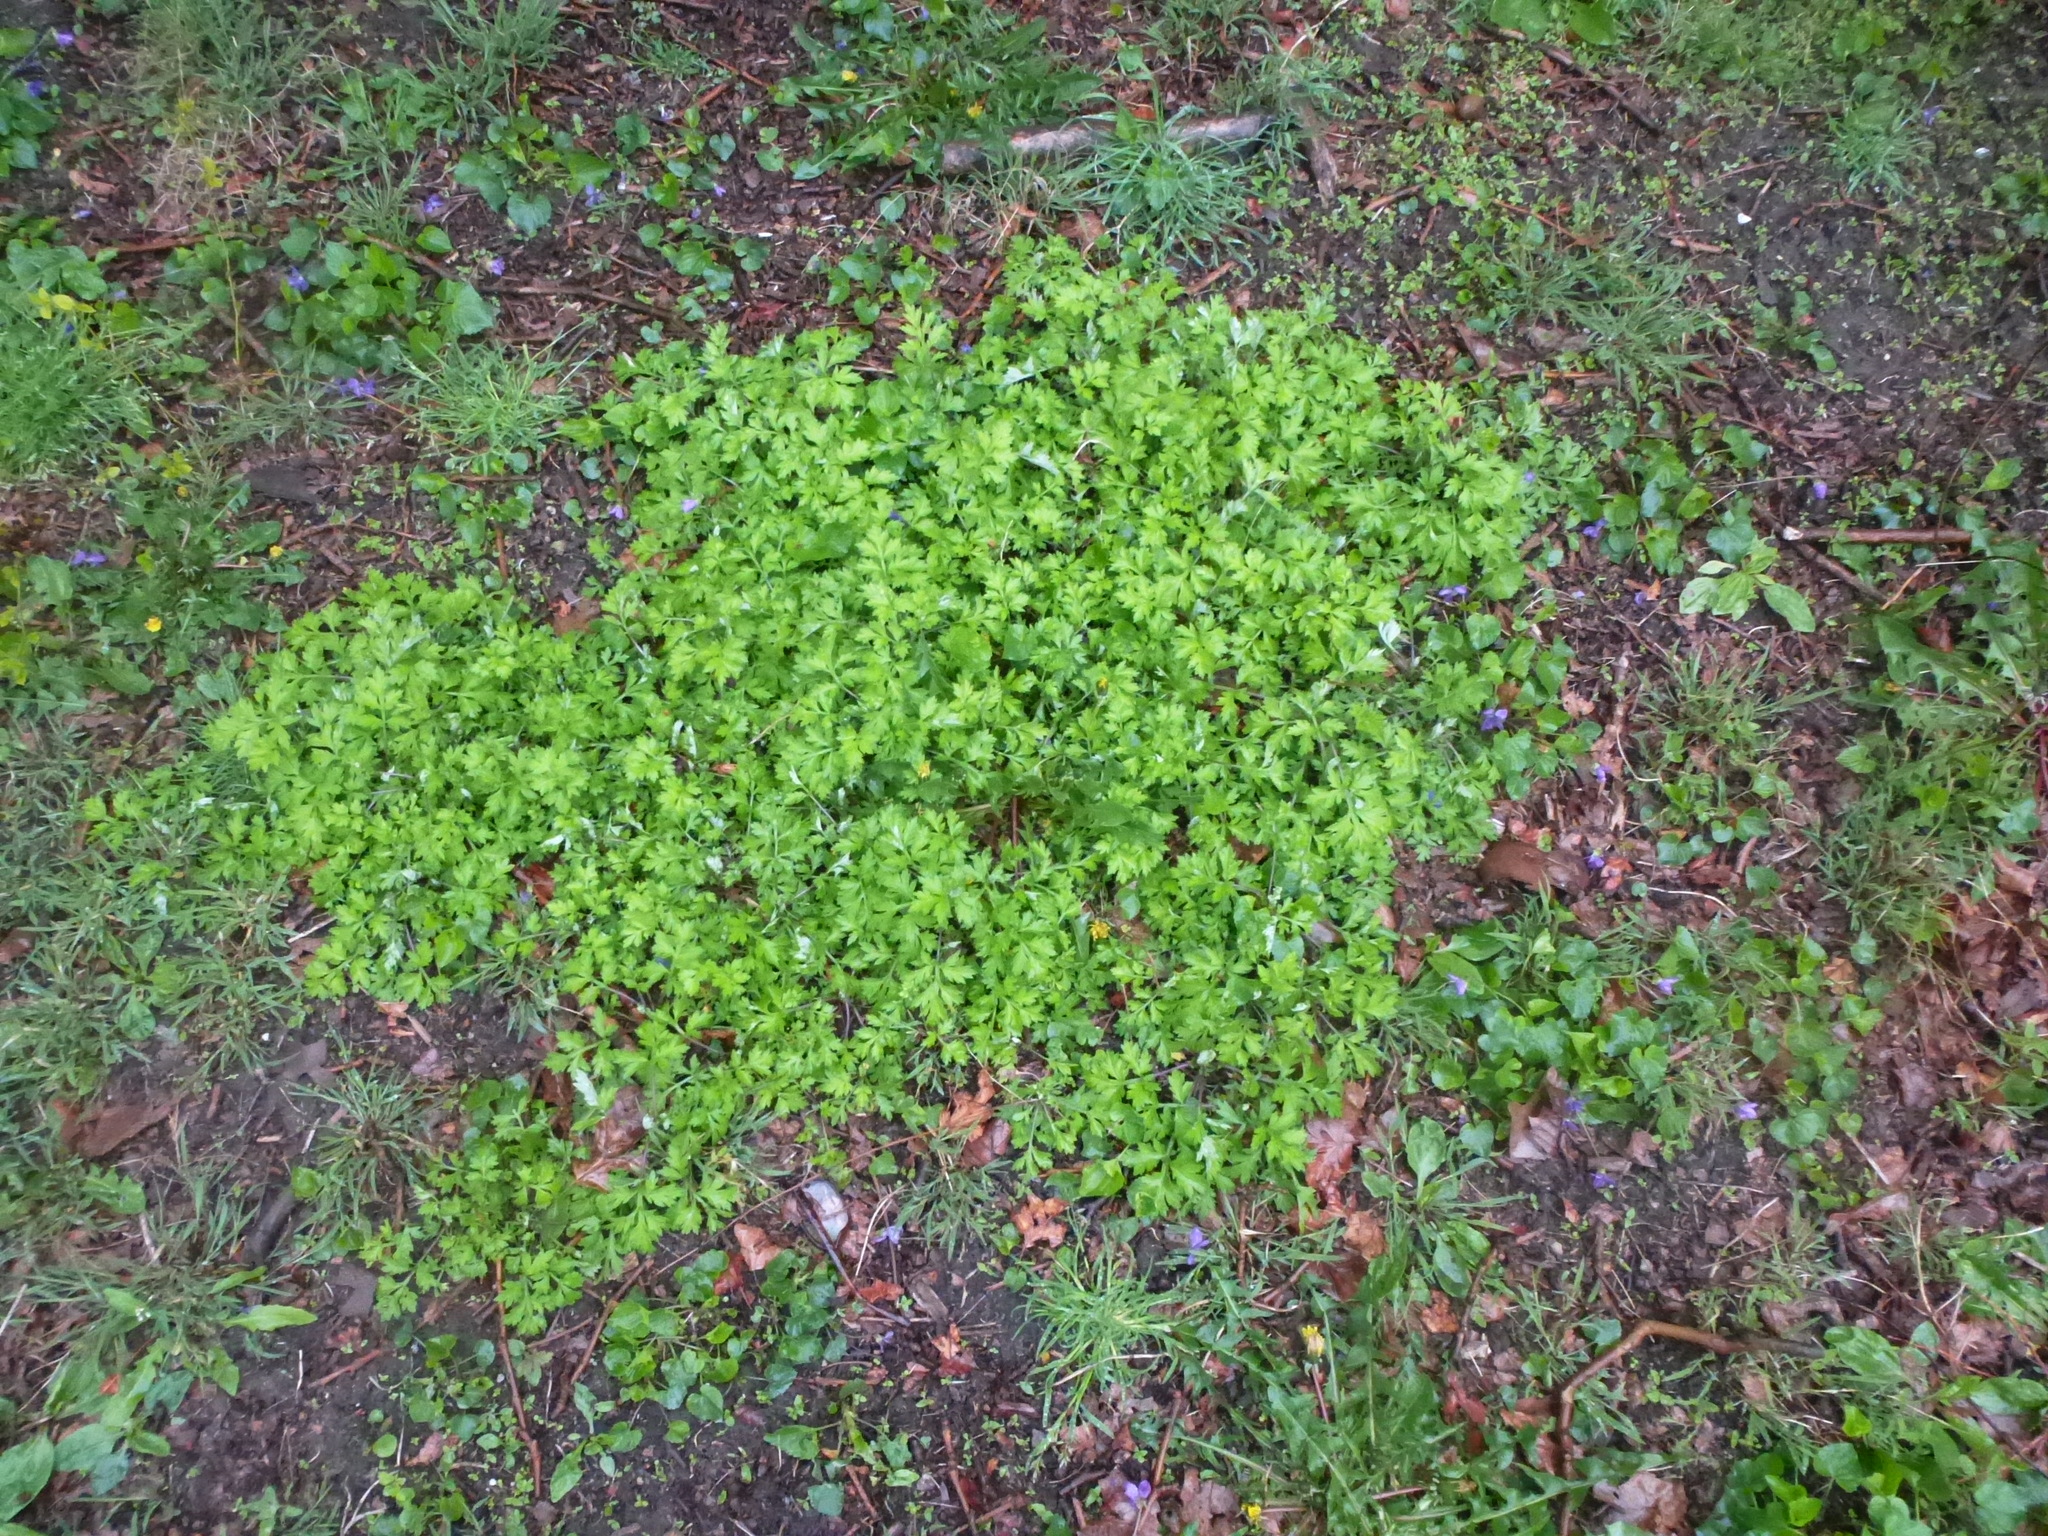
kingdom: Plantae
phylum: Tracheophyta
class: Magnoliopsida
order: Asterales
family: Asteraceae
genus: Artemisia
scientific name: Artemisia vulgaris
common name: Mugwort
